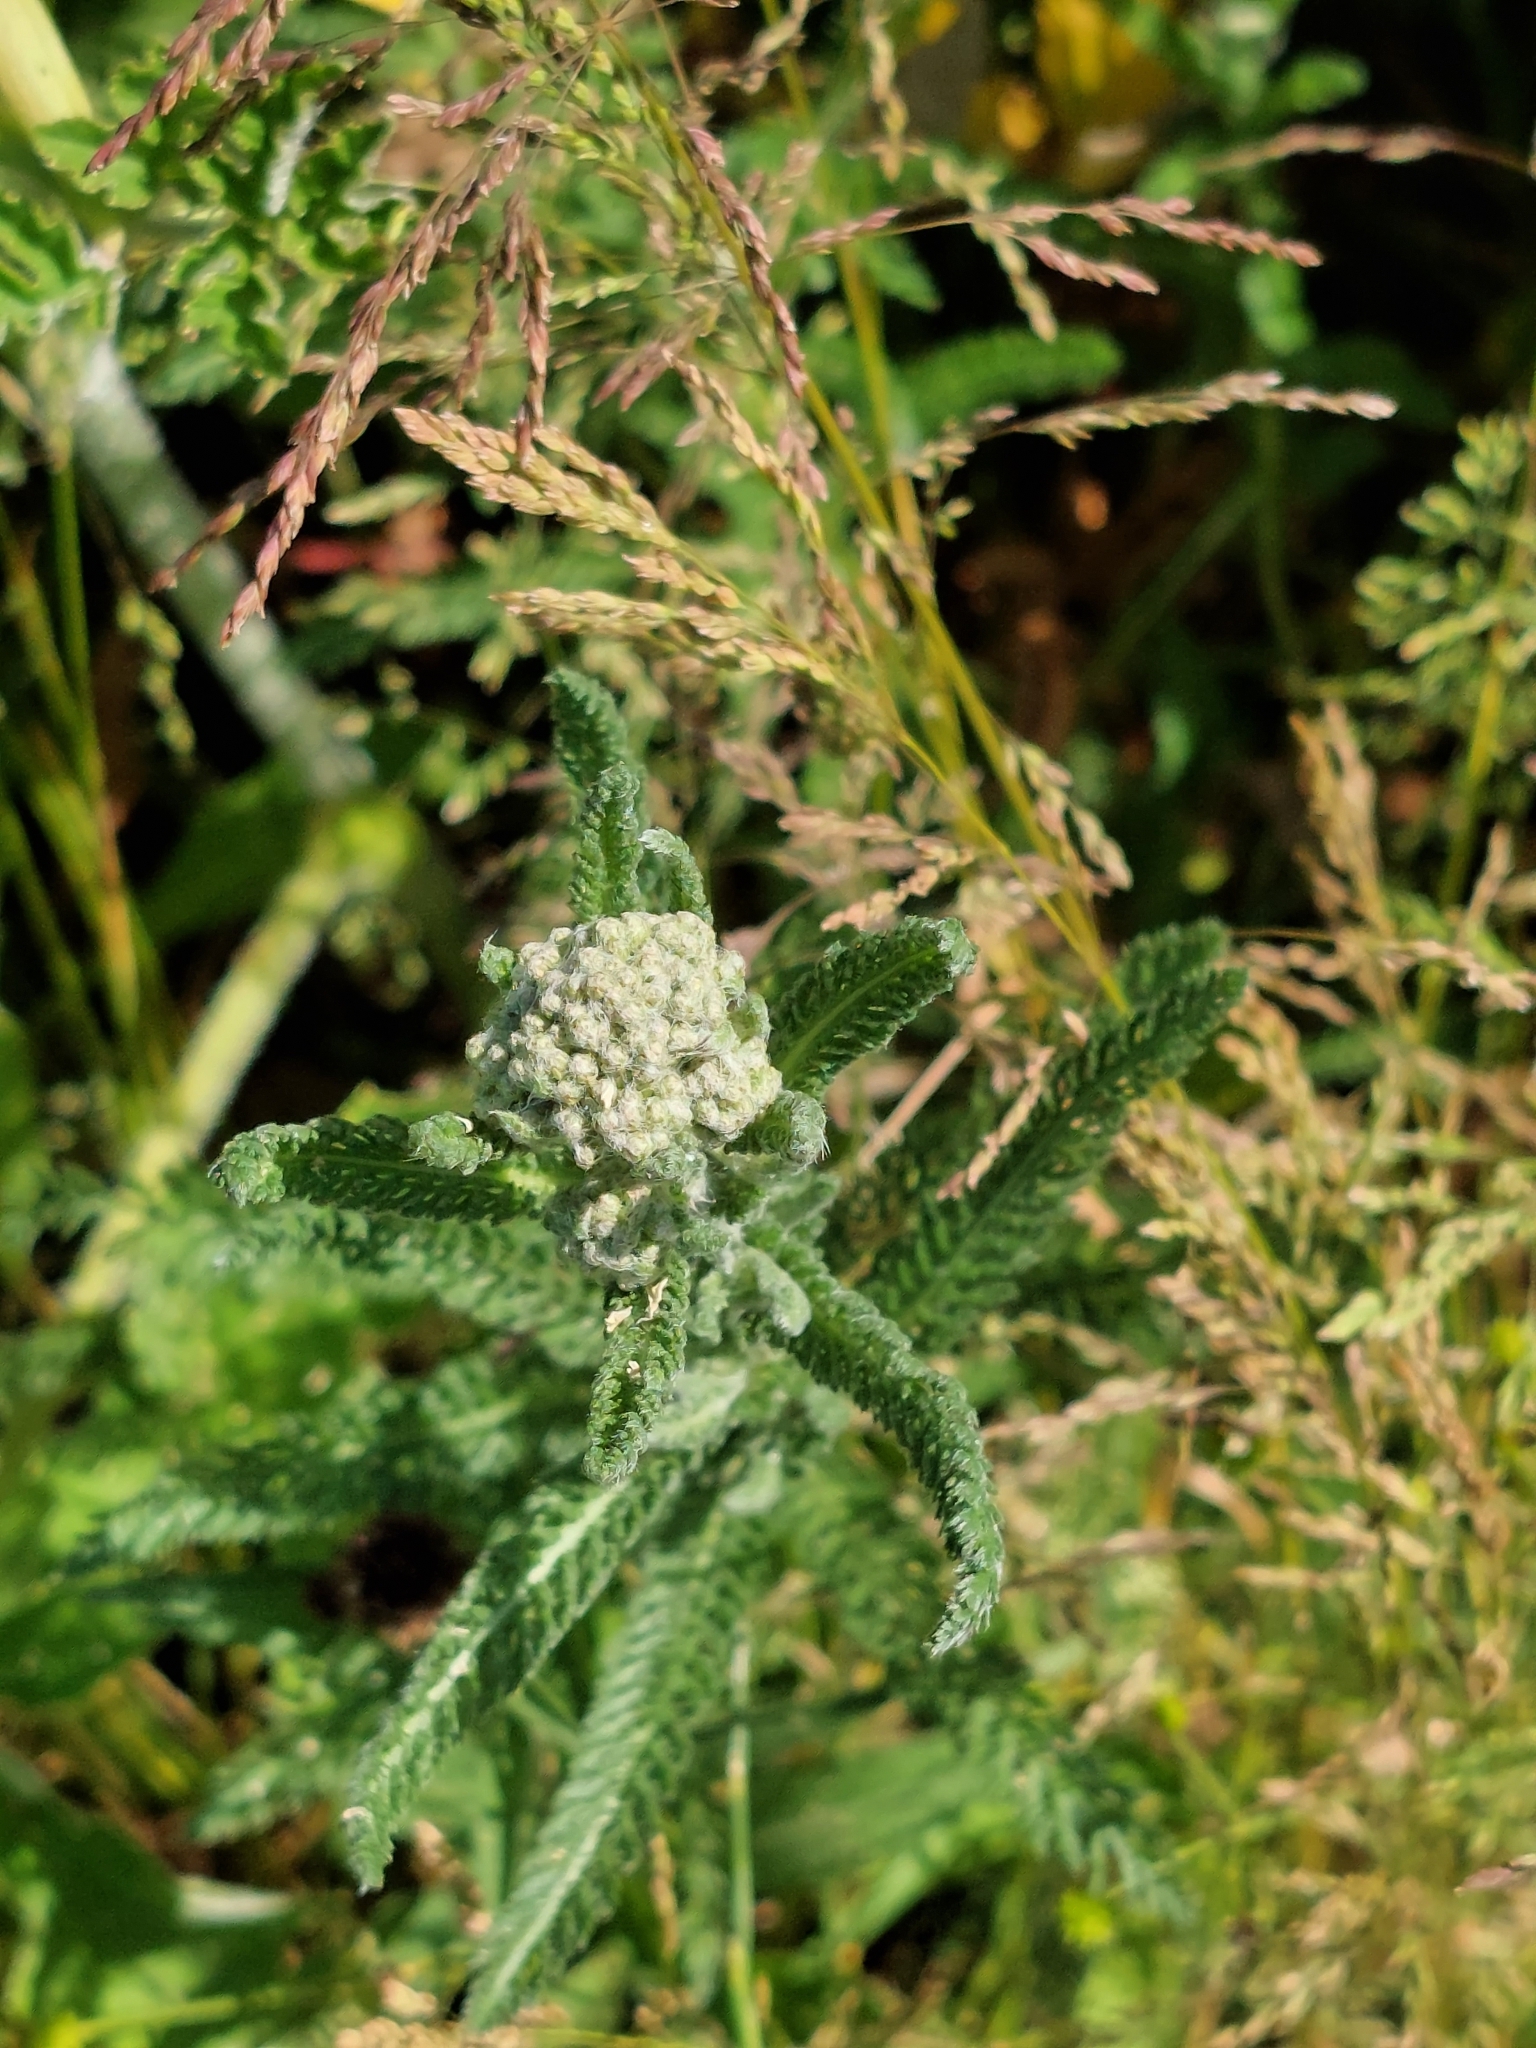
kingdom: Plantae
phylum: Tracheophyta
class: Magnoliopsida
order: Asterales
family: Asteraceae
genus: Achillea
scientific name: Achillea millefolium
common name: Yarrow
